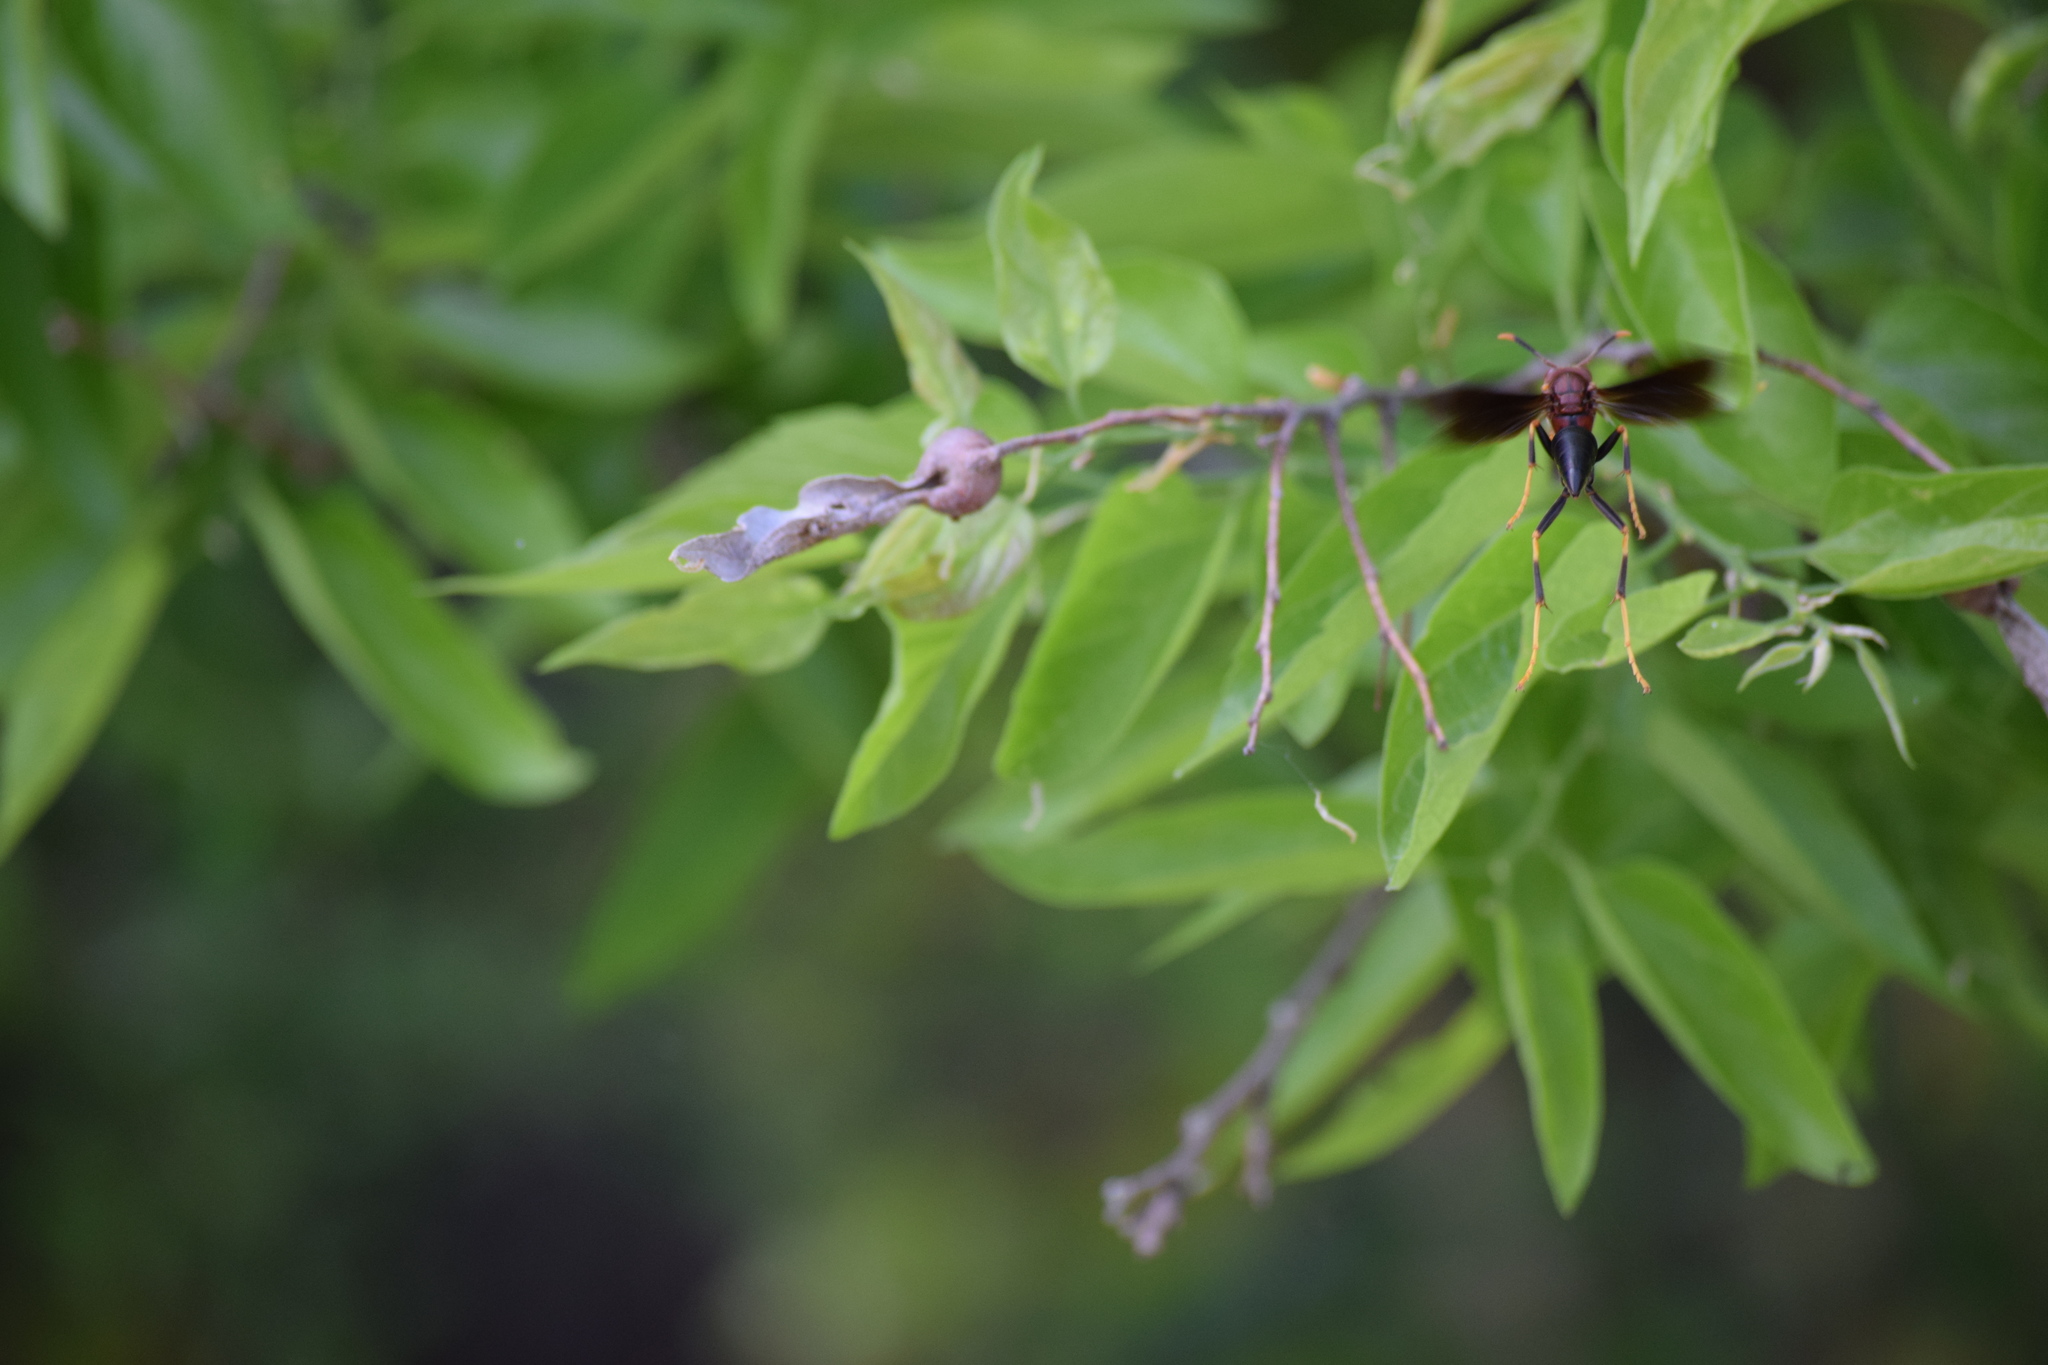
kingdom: Animalia
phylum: Arthropoda
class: Insecta
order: Hymenoptera
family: Eumenidae
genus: Polistes
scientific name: Polistes annularis
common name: Ringed paper wasp
